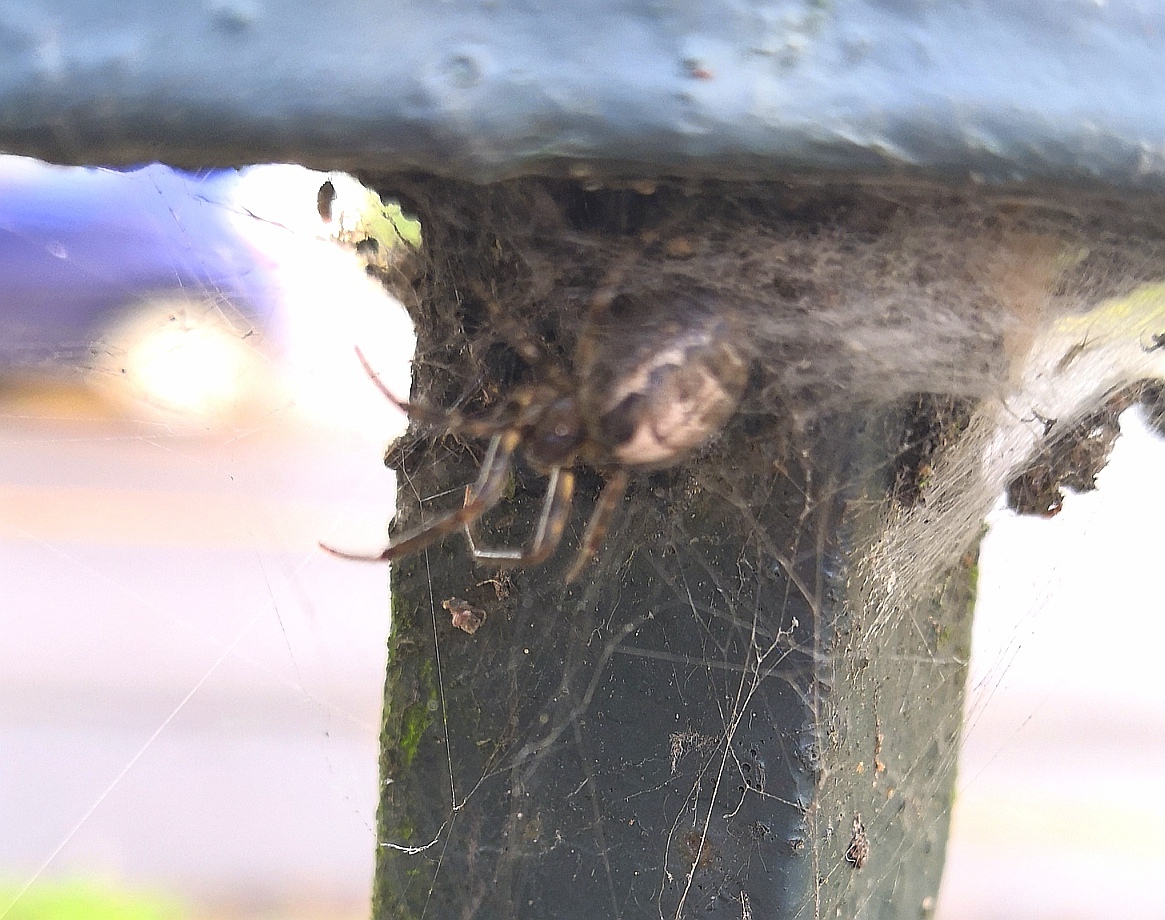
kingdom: Animalia
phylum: Arthropoda
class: Arachnida
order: Araneae
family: Araneidae
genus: Zygiella
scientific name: Zygiella x-notata
